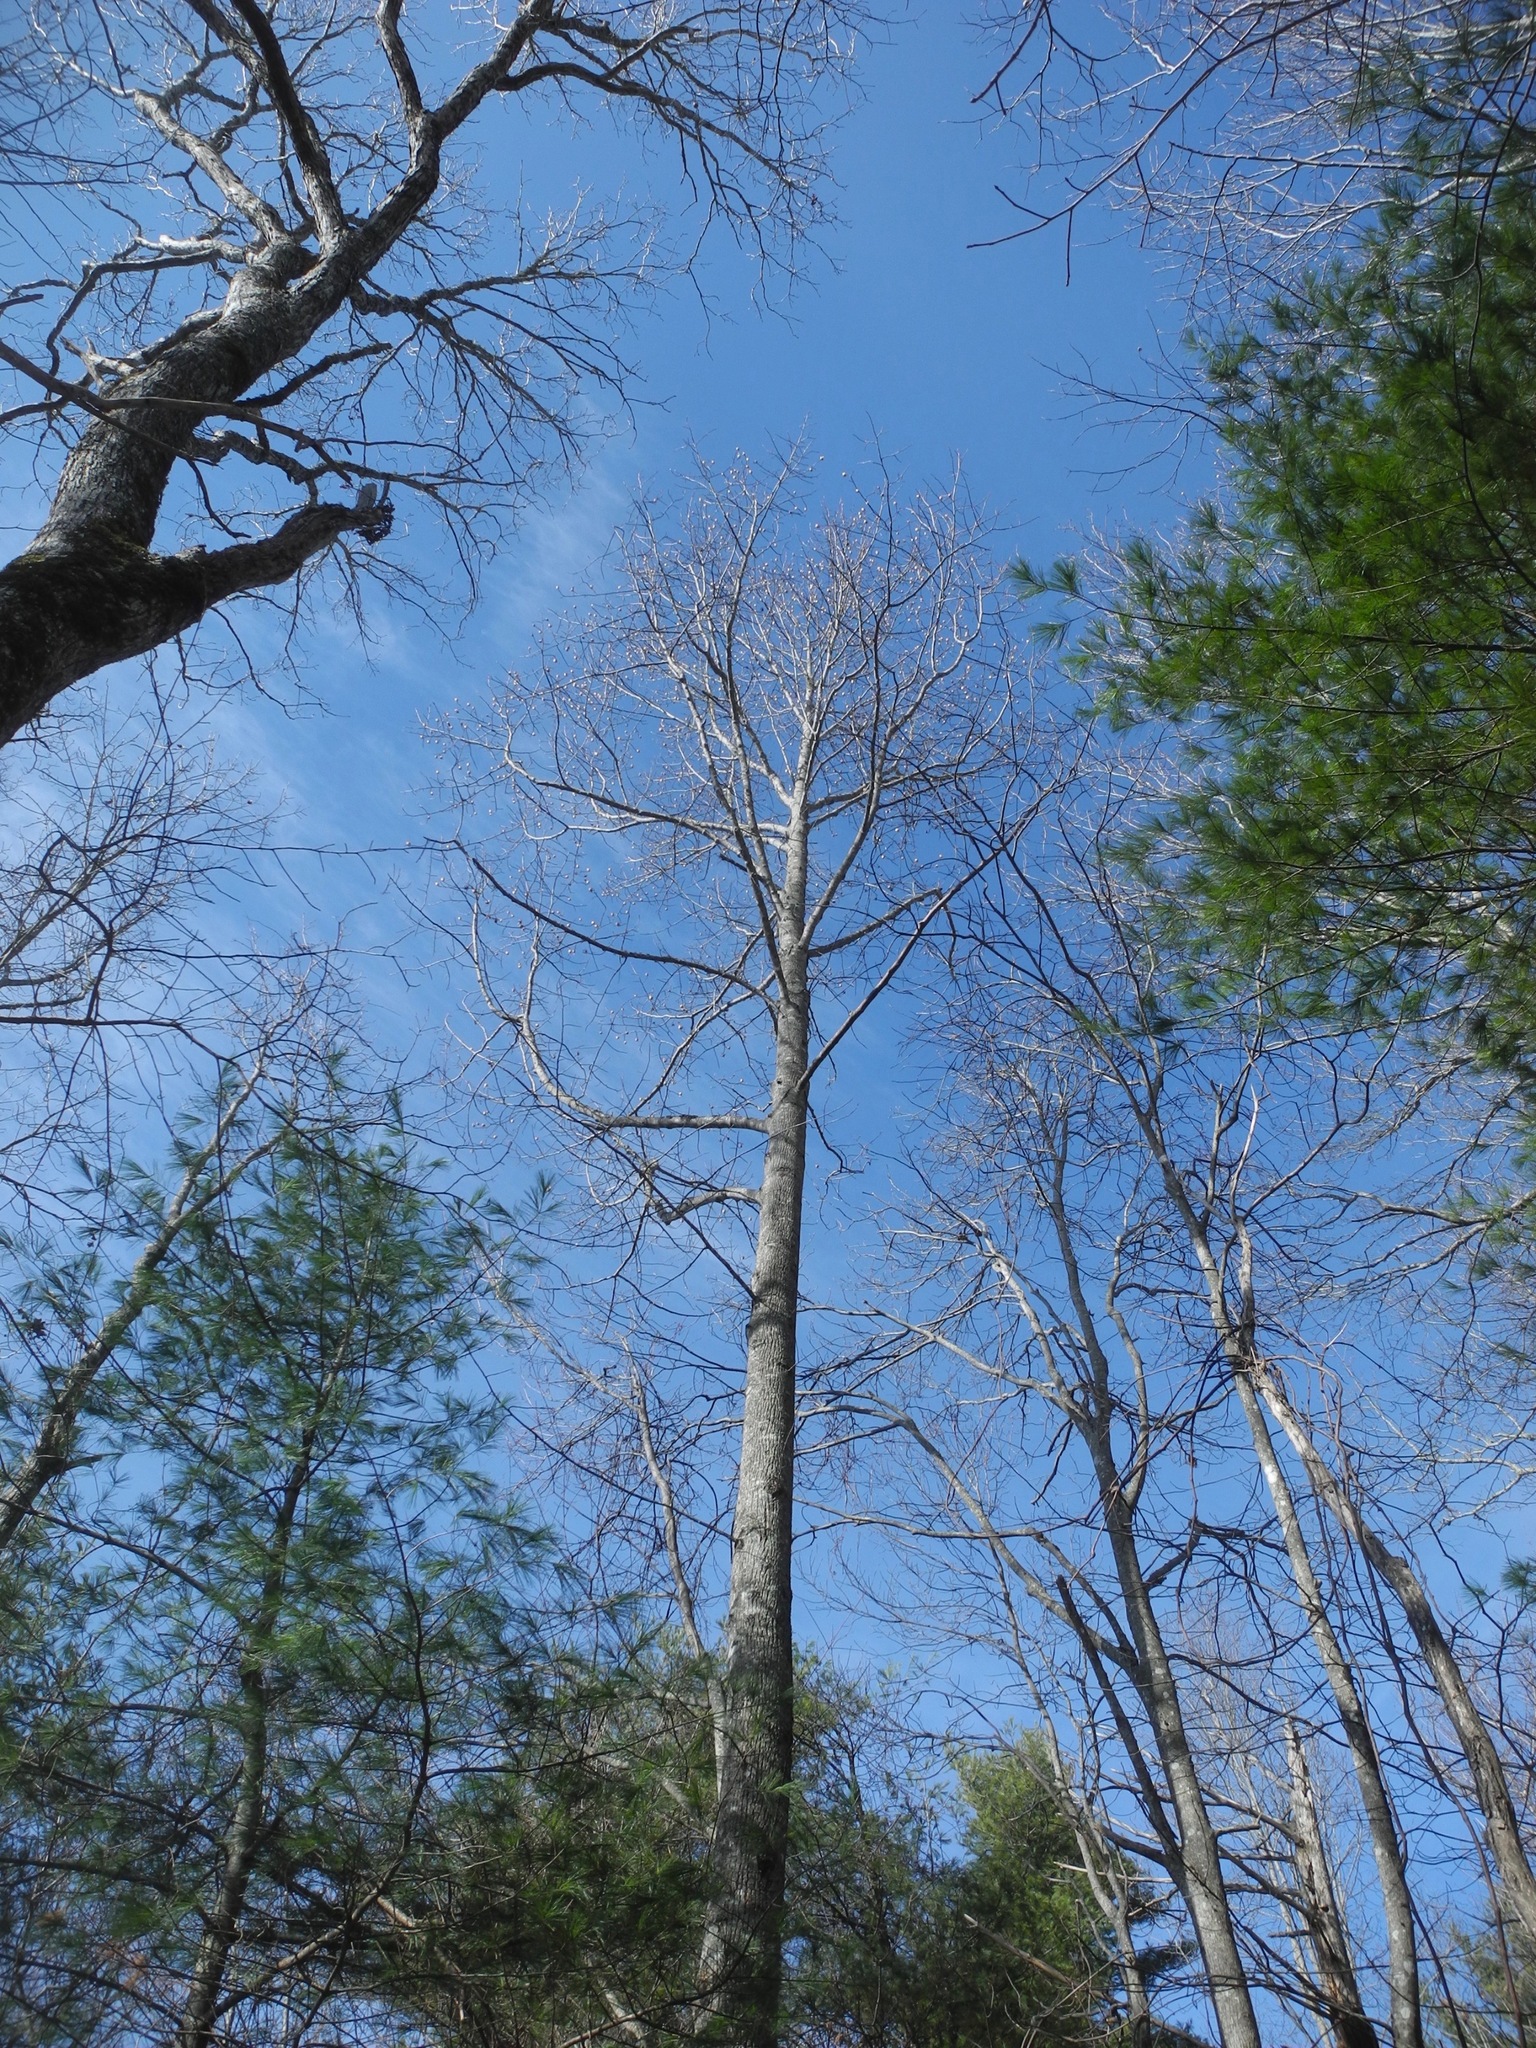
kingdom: Plantae
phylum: Tracheophyta
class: Magnoliopsida
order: Magnoliales
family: Magnoliaceae
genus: Liriodendron
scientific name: Liriodendron tulipifera
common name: Tulip tree
